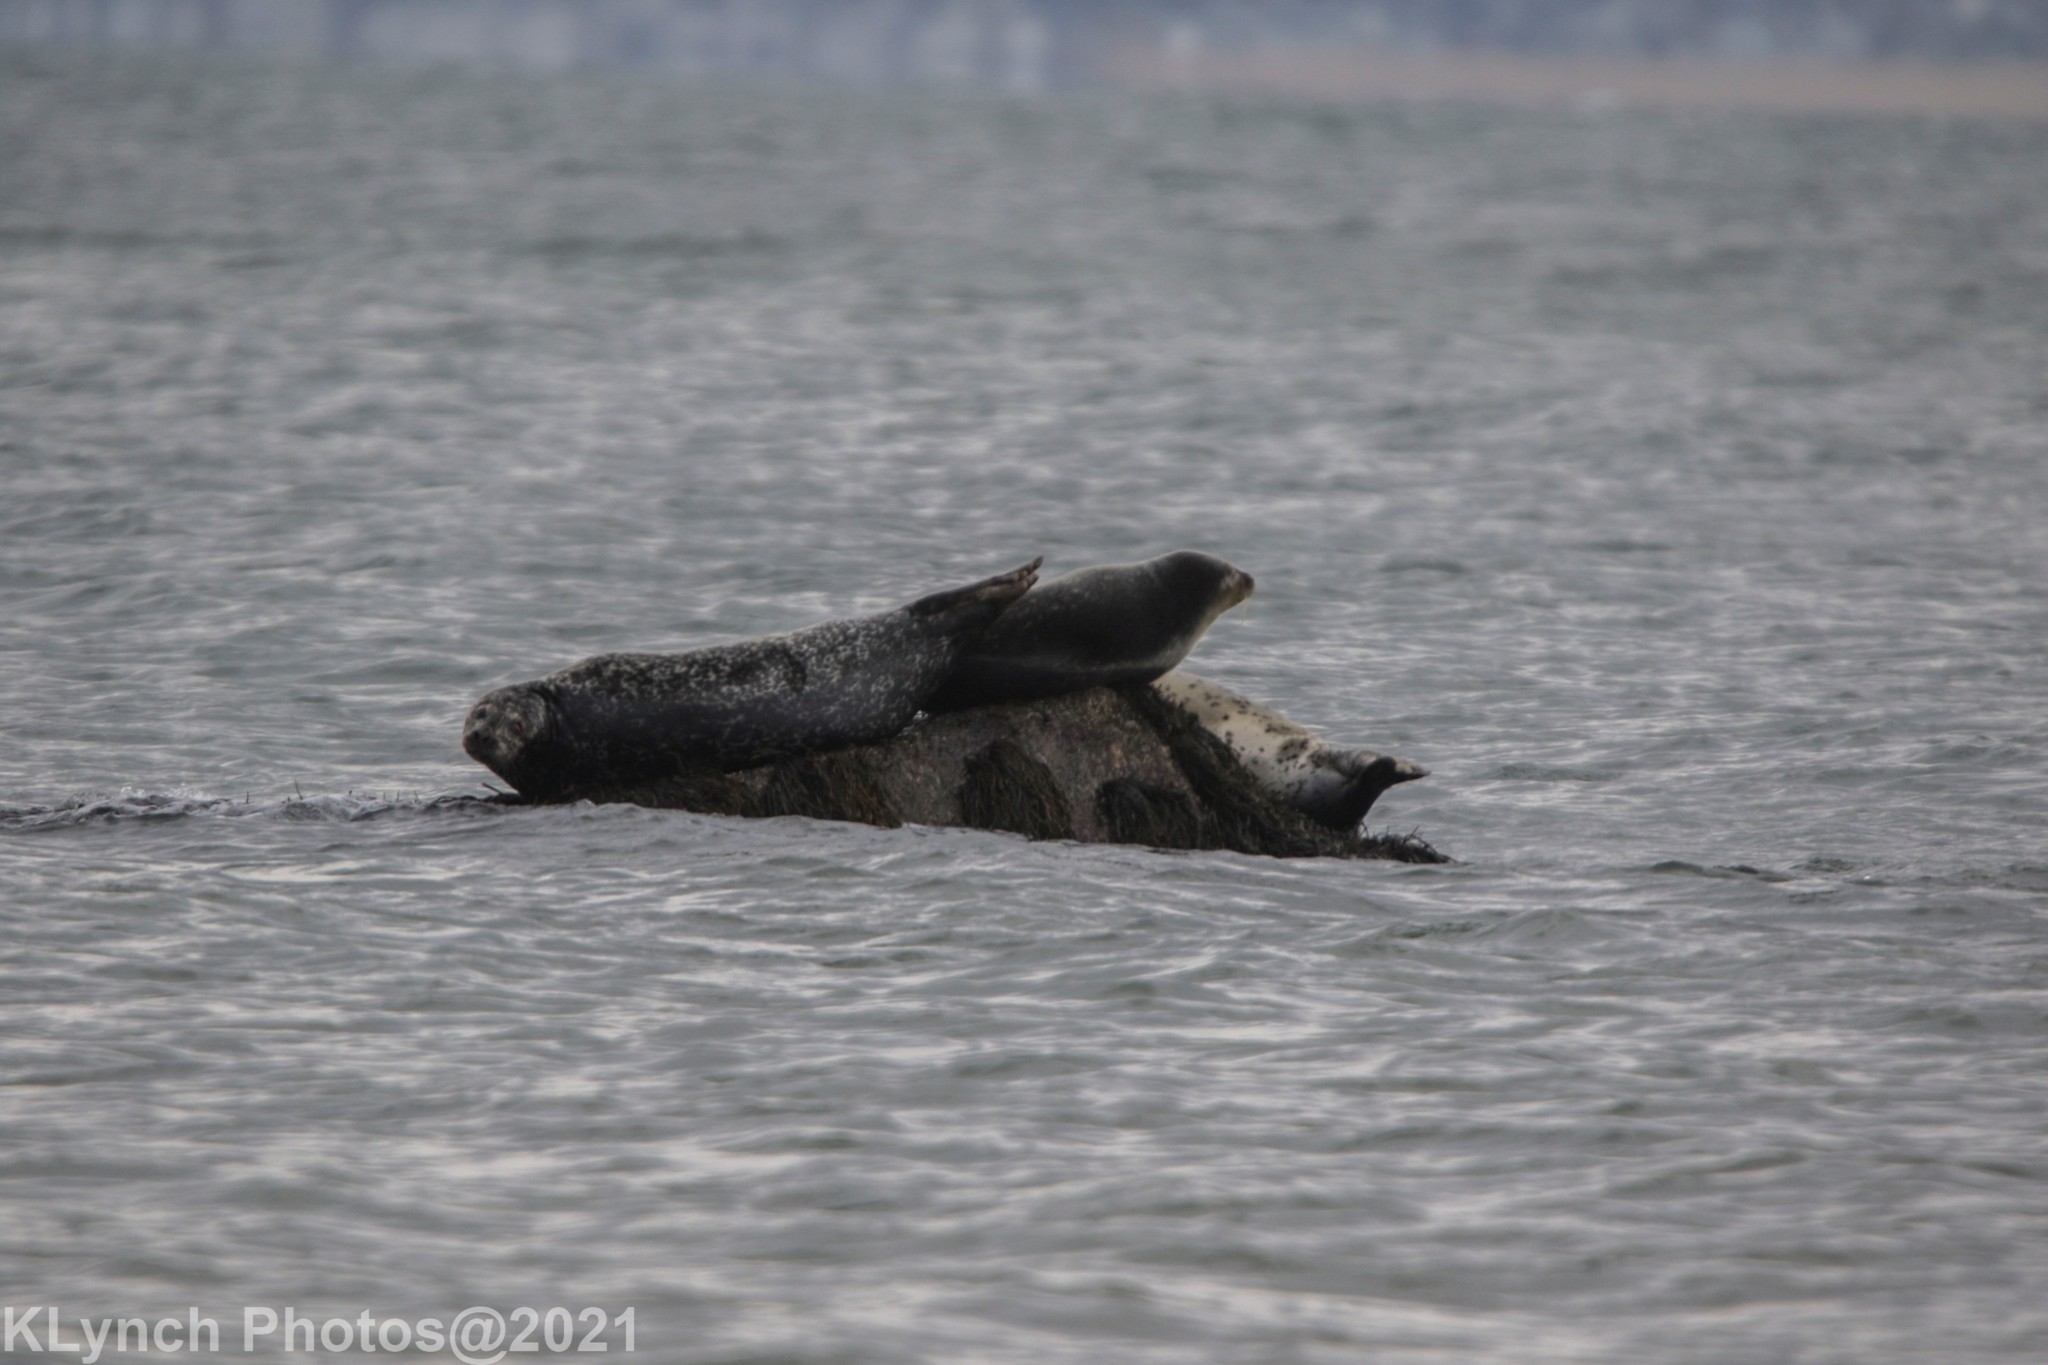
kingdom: Animalia
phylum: Chordata
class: Mammalia
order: Carnivora
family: Phocidae
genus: Phoca
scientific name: Phoca vitulina
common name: Harbor seal
